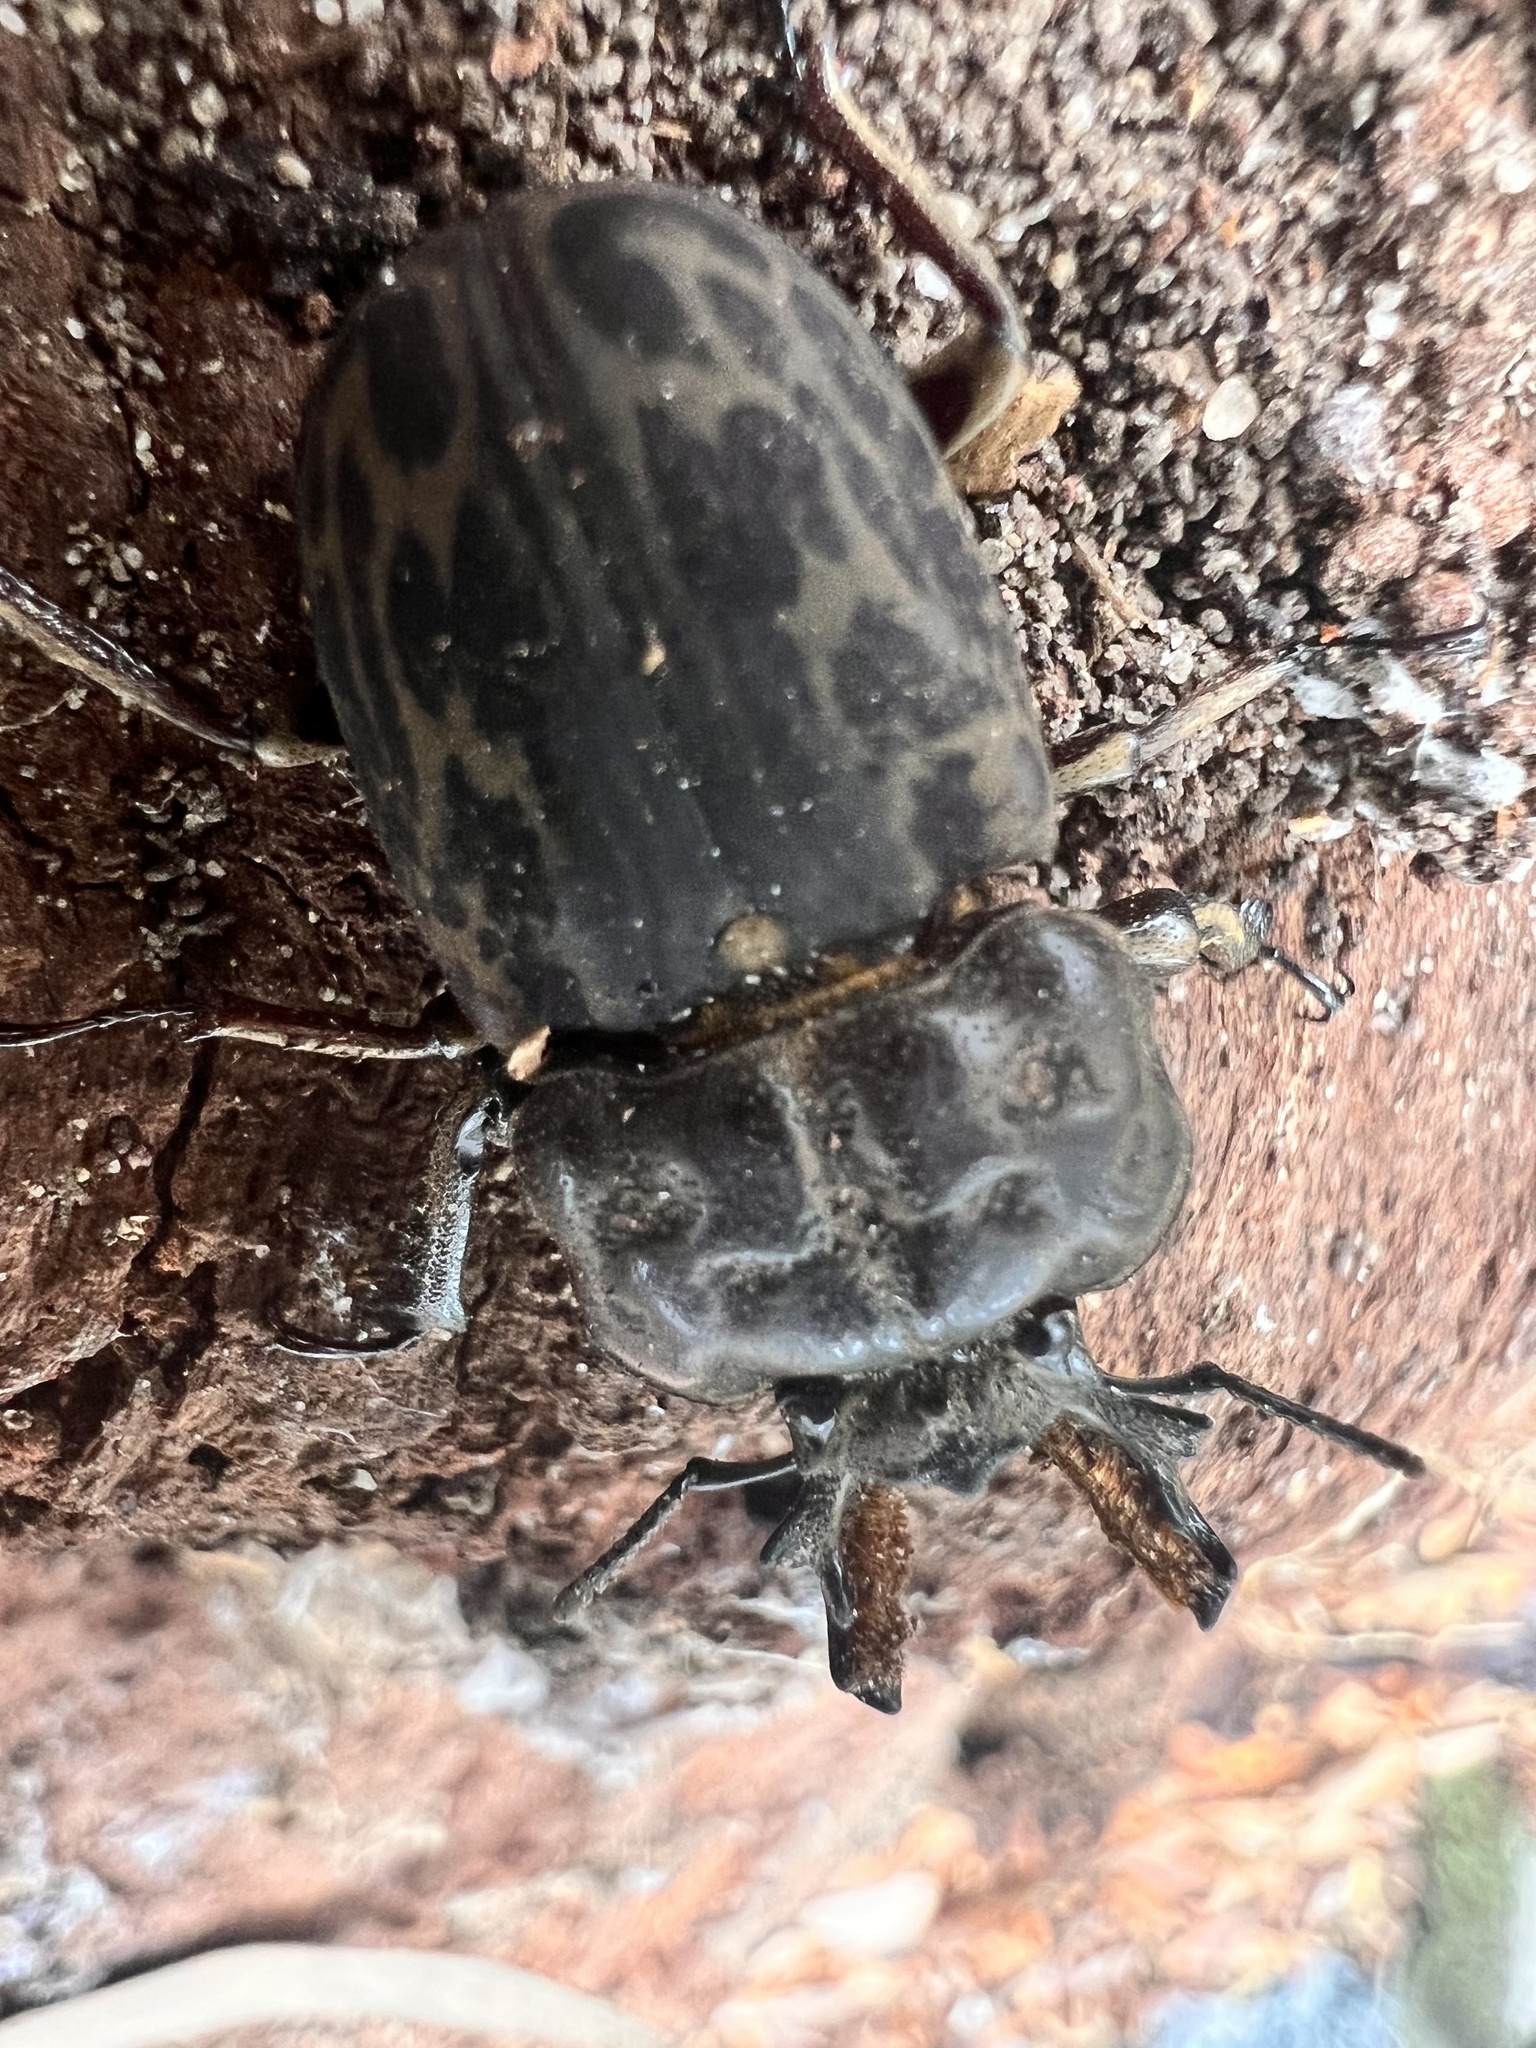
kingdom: Animalia
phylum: Arthropoda
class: Insecta
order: Coleoptera
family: Lucanidae
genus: Ryssonotus
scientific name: Ryssonotus nebulosus
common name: Brown stag beetle
